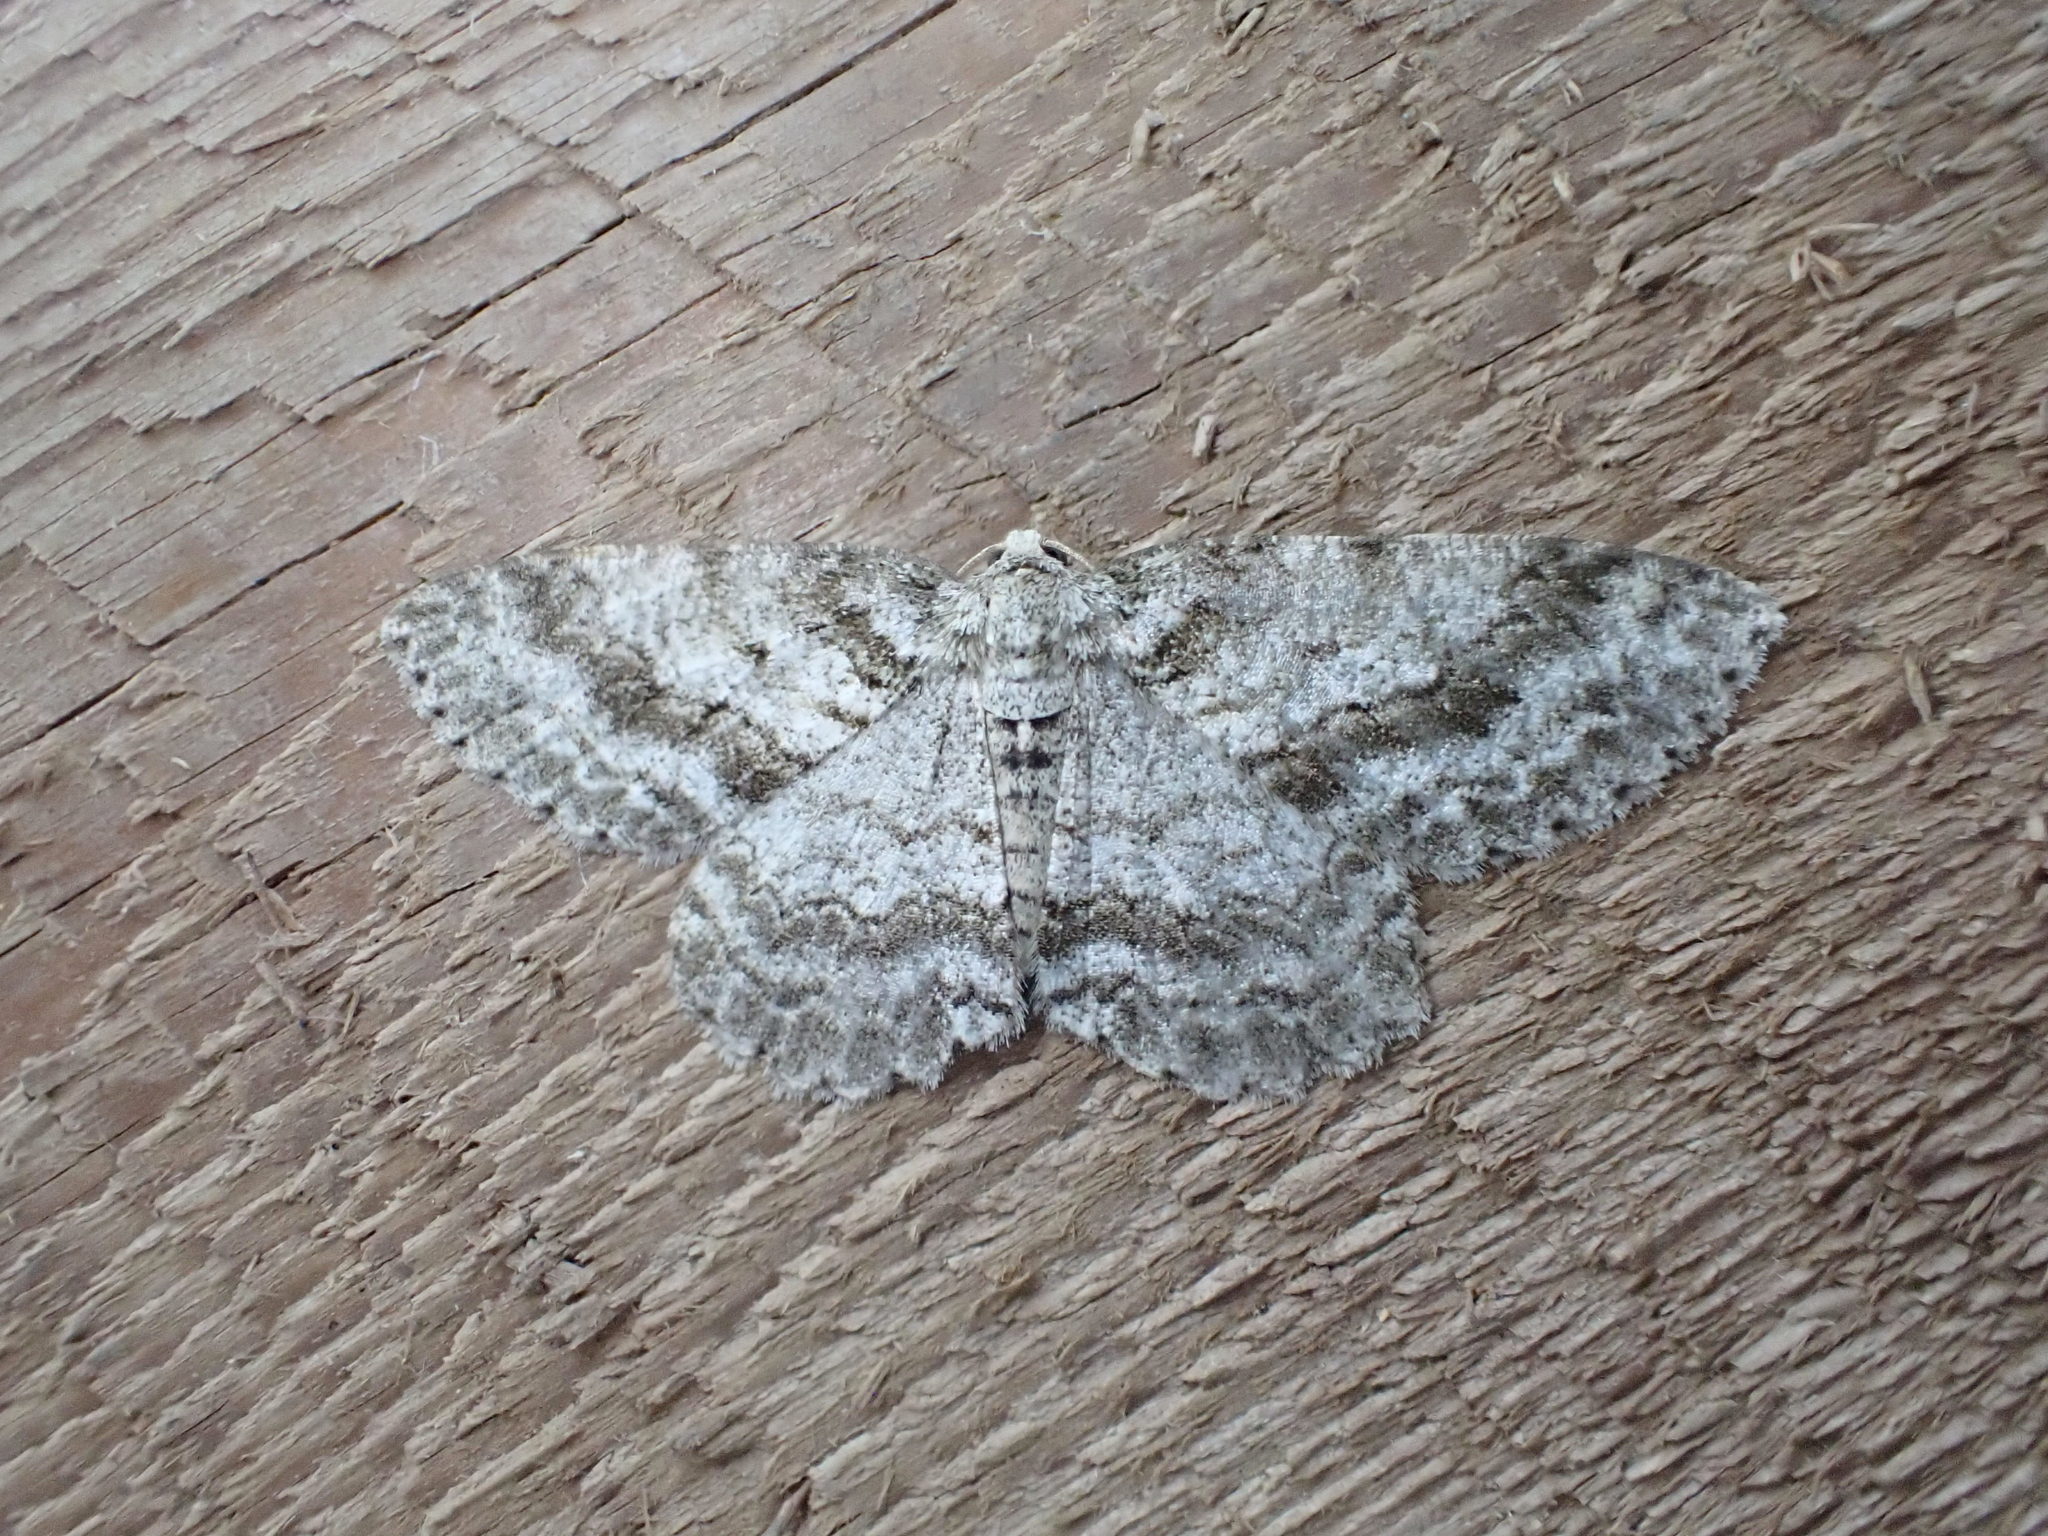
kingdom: Animalia
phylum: Arthropoda
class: Insecta
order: Lepidoptera
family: Geometridae
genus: Ectropis
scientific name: Ectropis crepuscularia
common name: Engrailed
